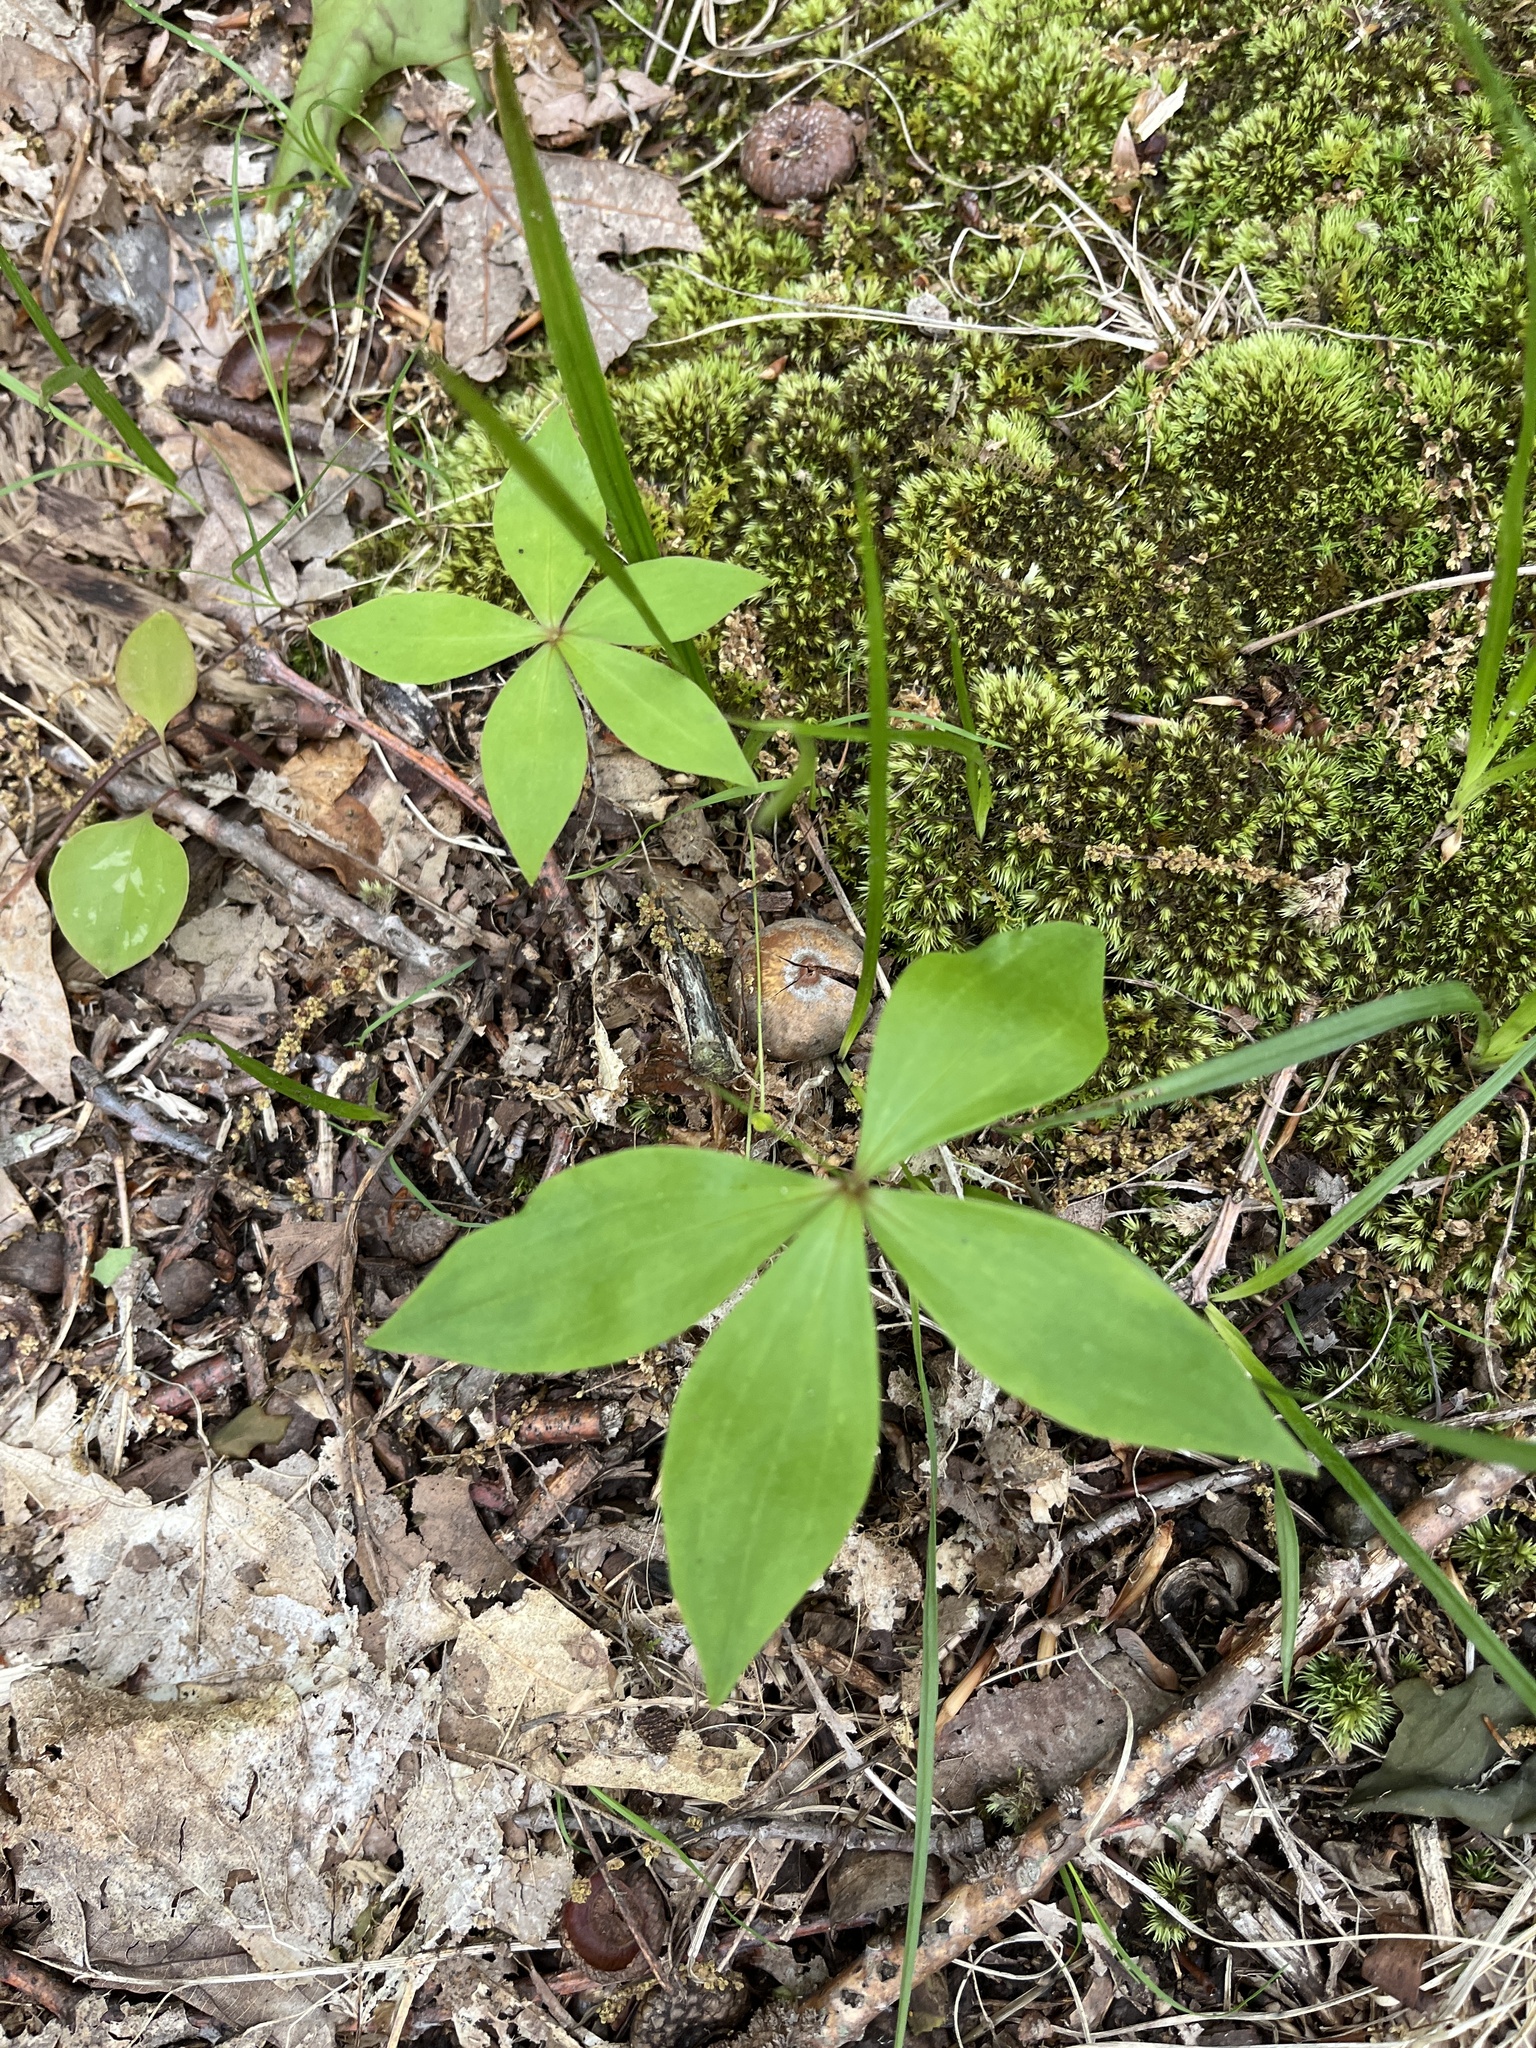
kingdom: Plantae
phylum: Tracheophyta
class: Liliopsida
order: Liliales
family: Liliaceae
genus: Medeola
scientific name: Medeola virginiana
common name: Indian cucumber-root
